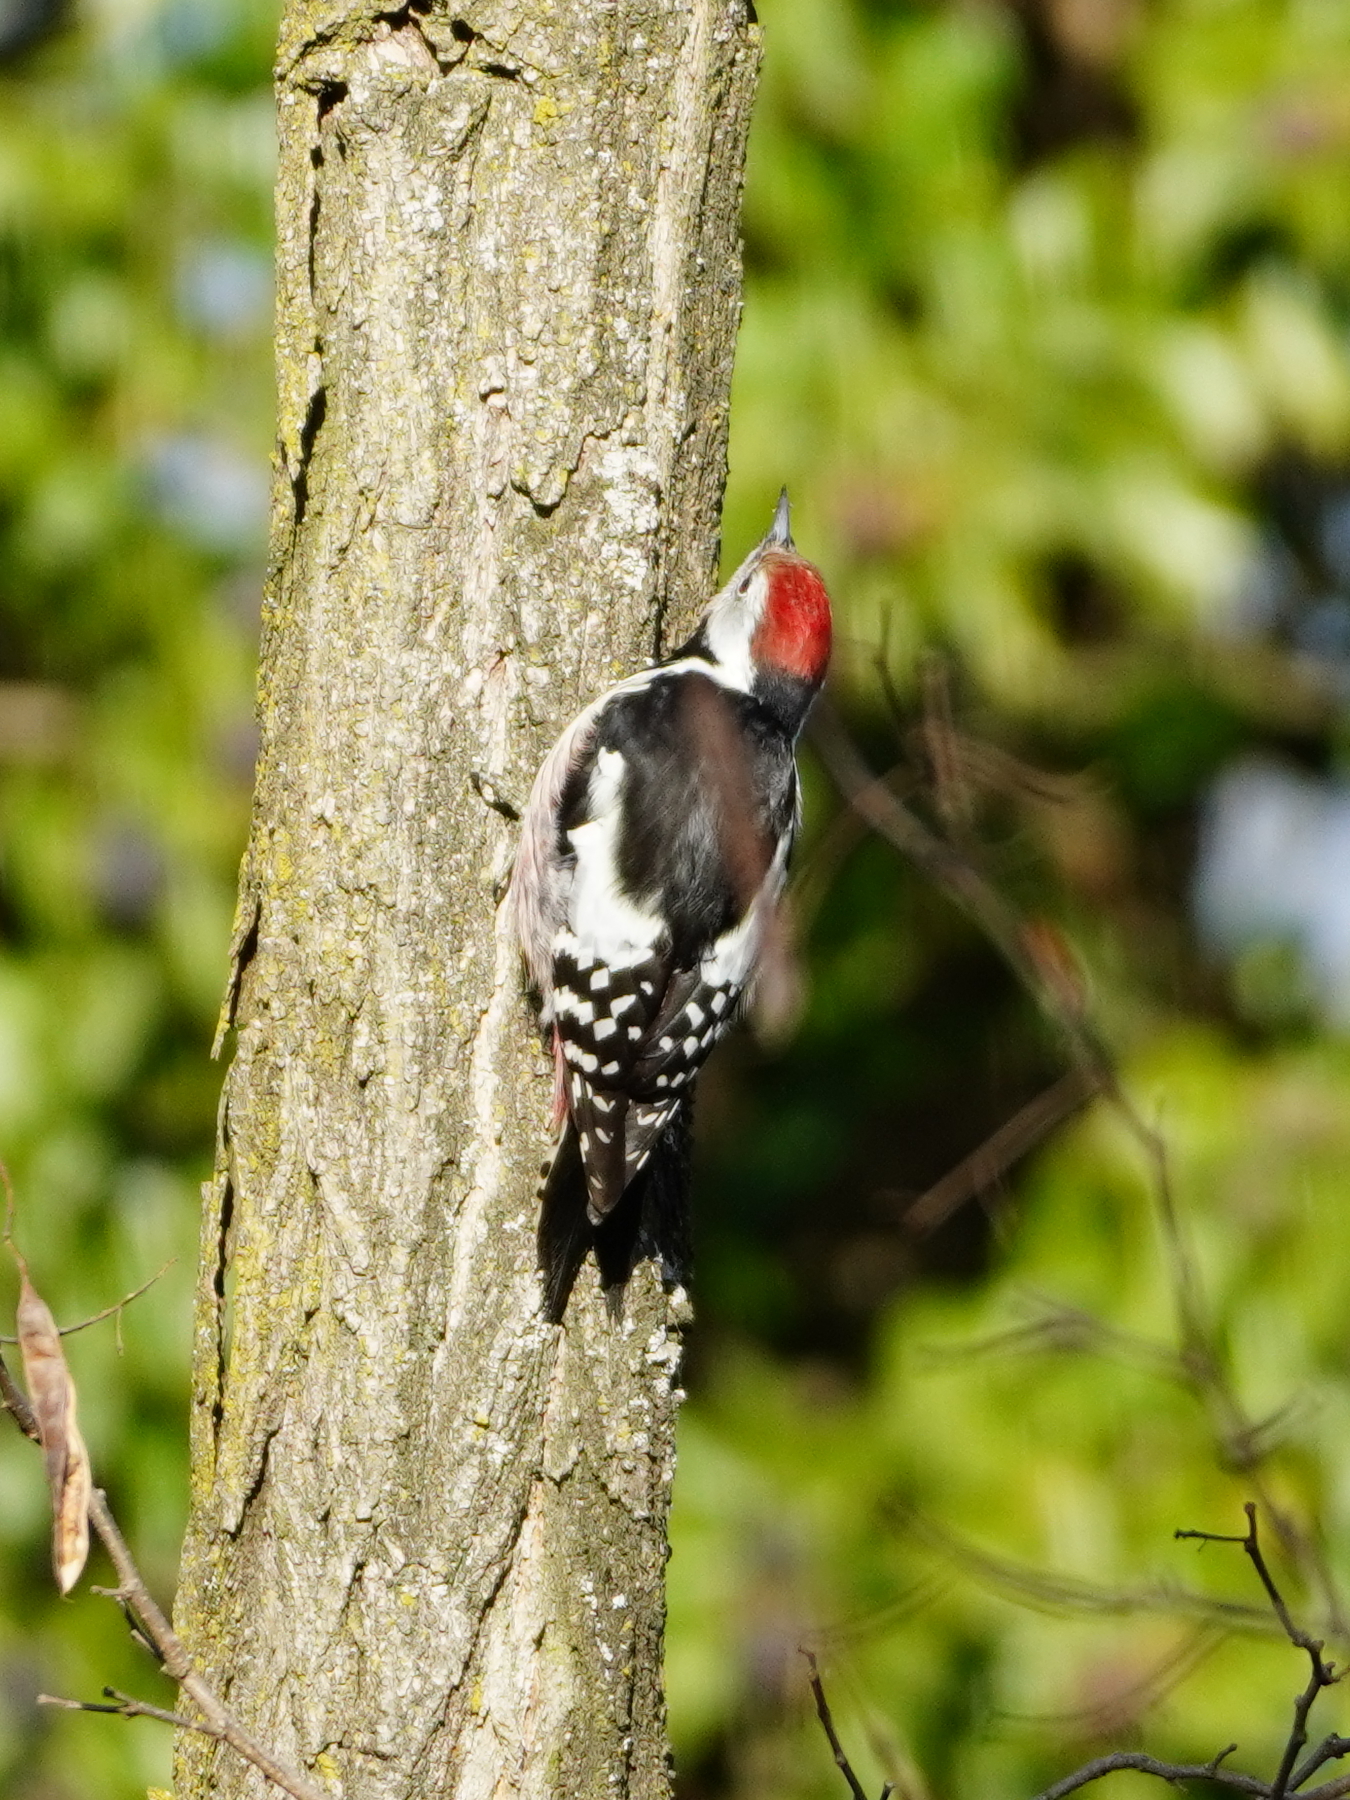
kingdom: Animalia
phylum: Chordata
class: Aves
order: Piciformes
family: Picidae
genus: Dendrocoptes
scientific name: Dendrocoptes medius
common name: Middle spotted woodpecker
